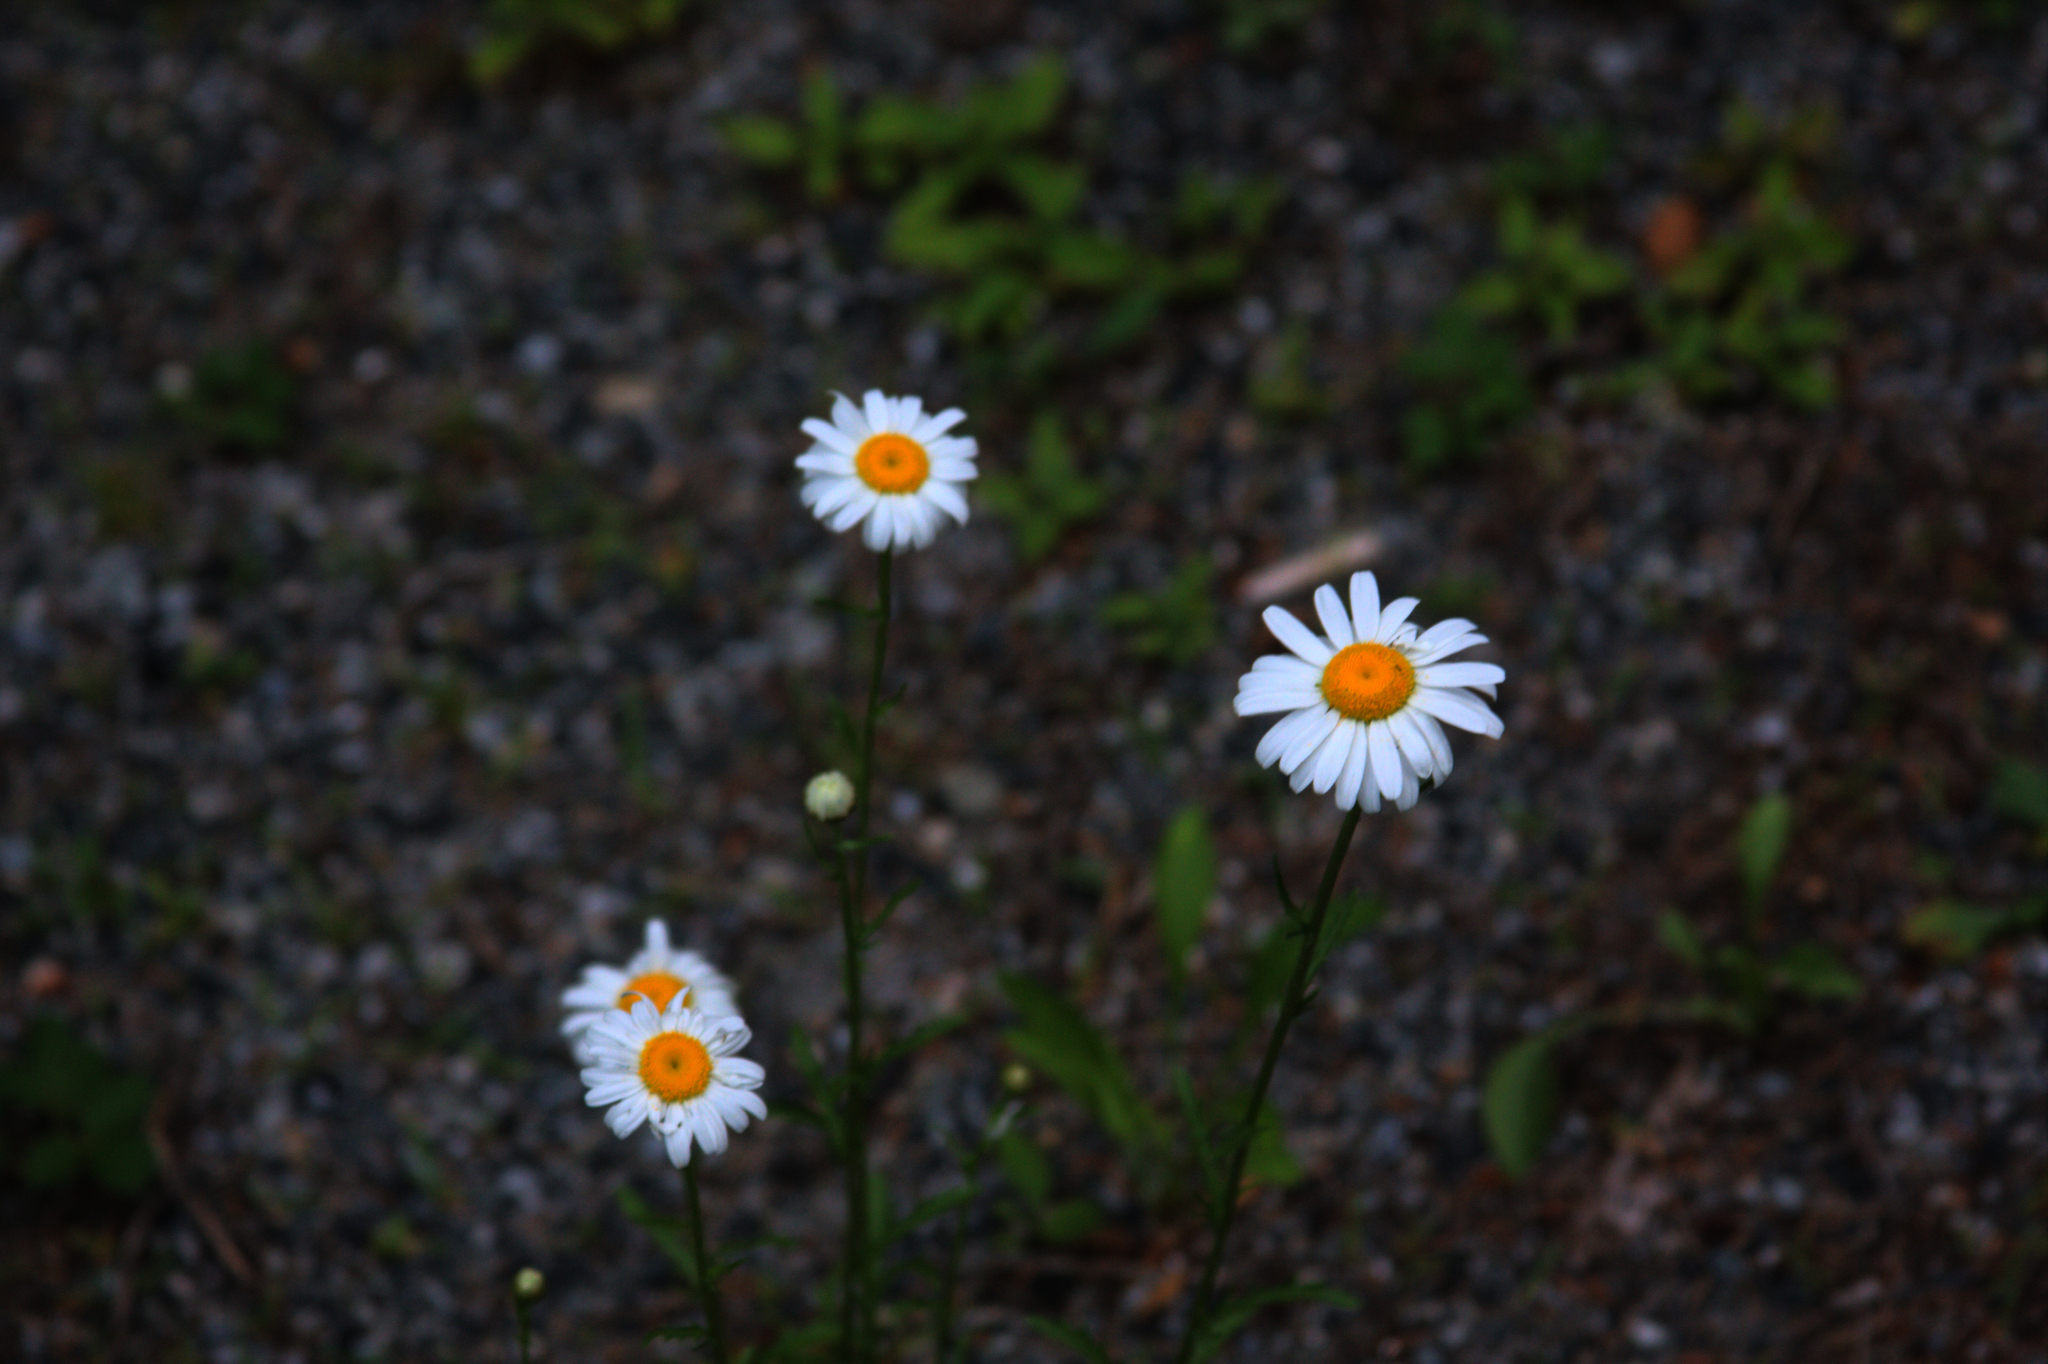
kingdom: Plantae
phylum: Tracheophyta
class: Magnoliopsida
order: Asterales
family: Asteraceae
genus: Leucanthemum
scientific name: Leucanthemum vulgare
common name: Oxeye daisy
